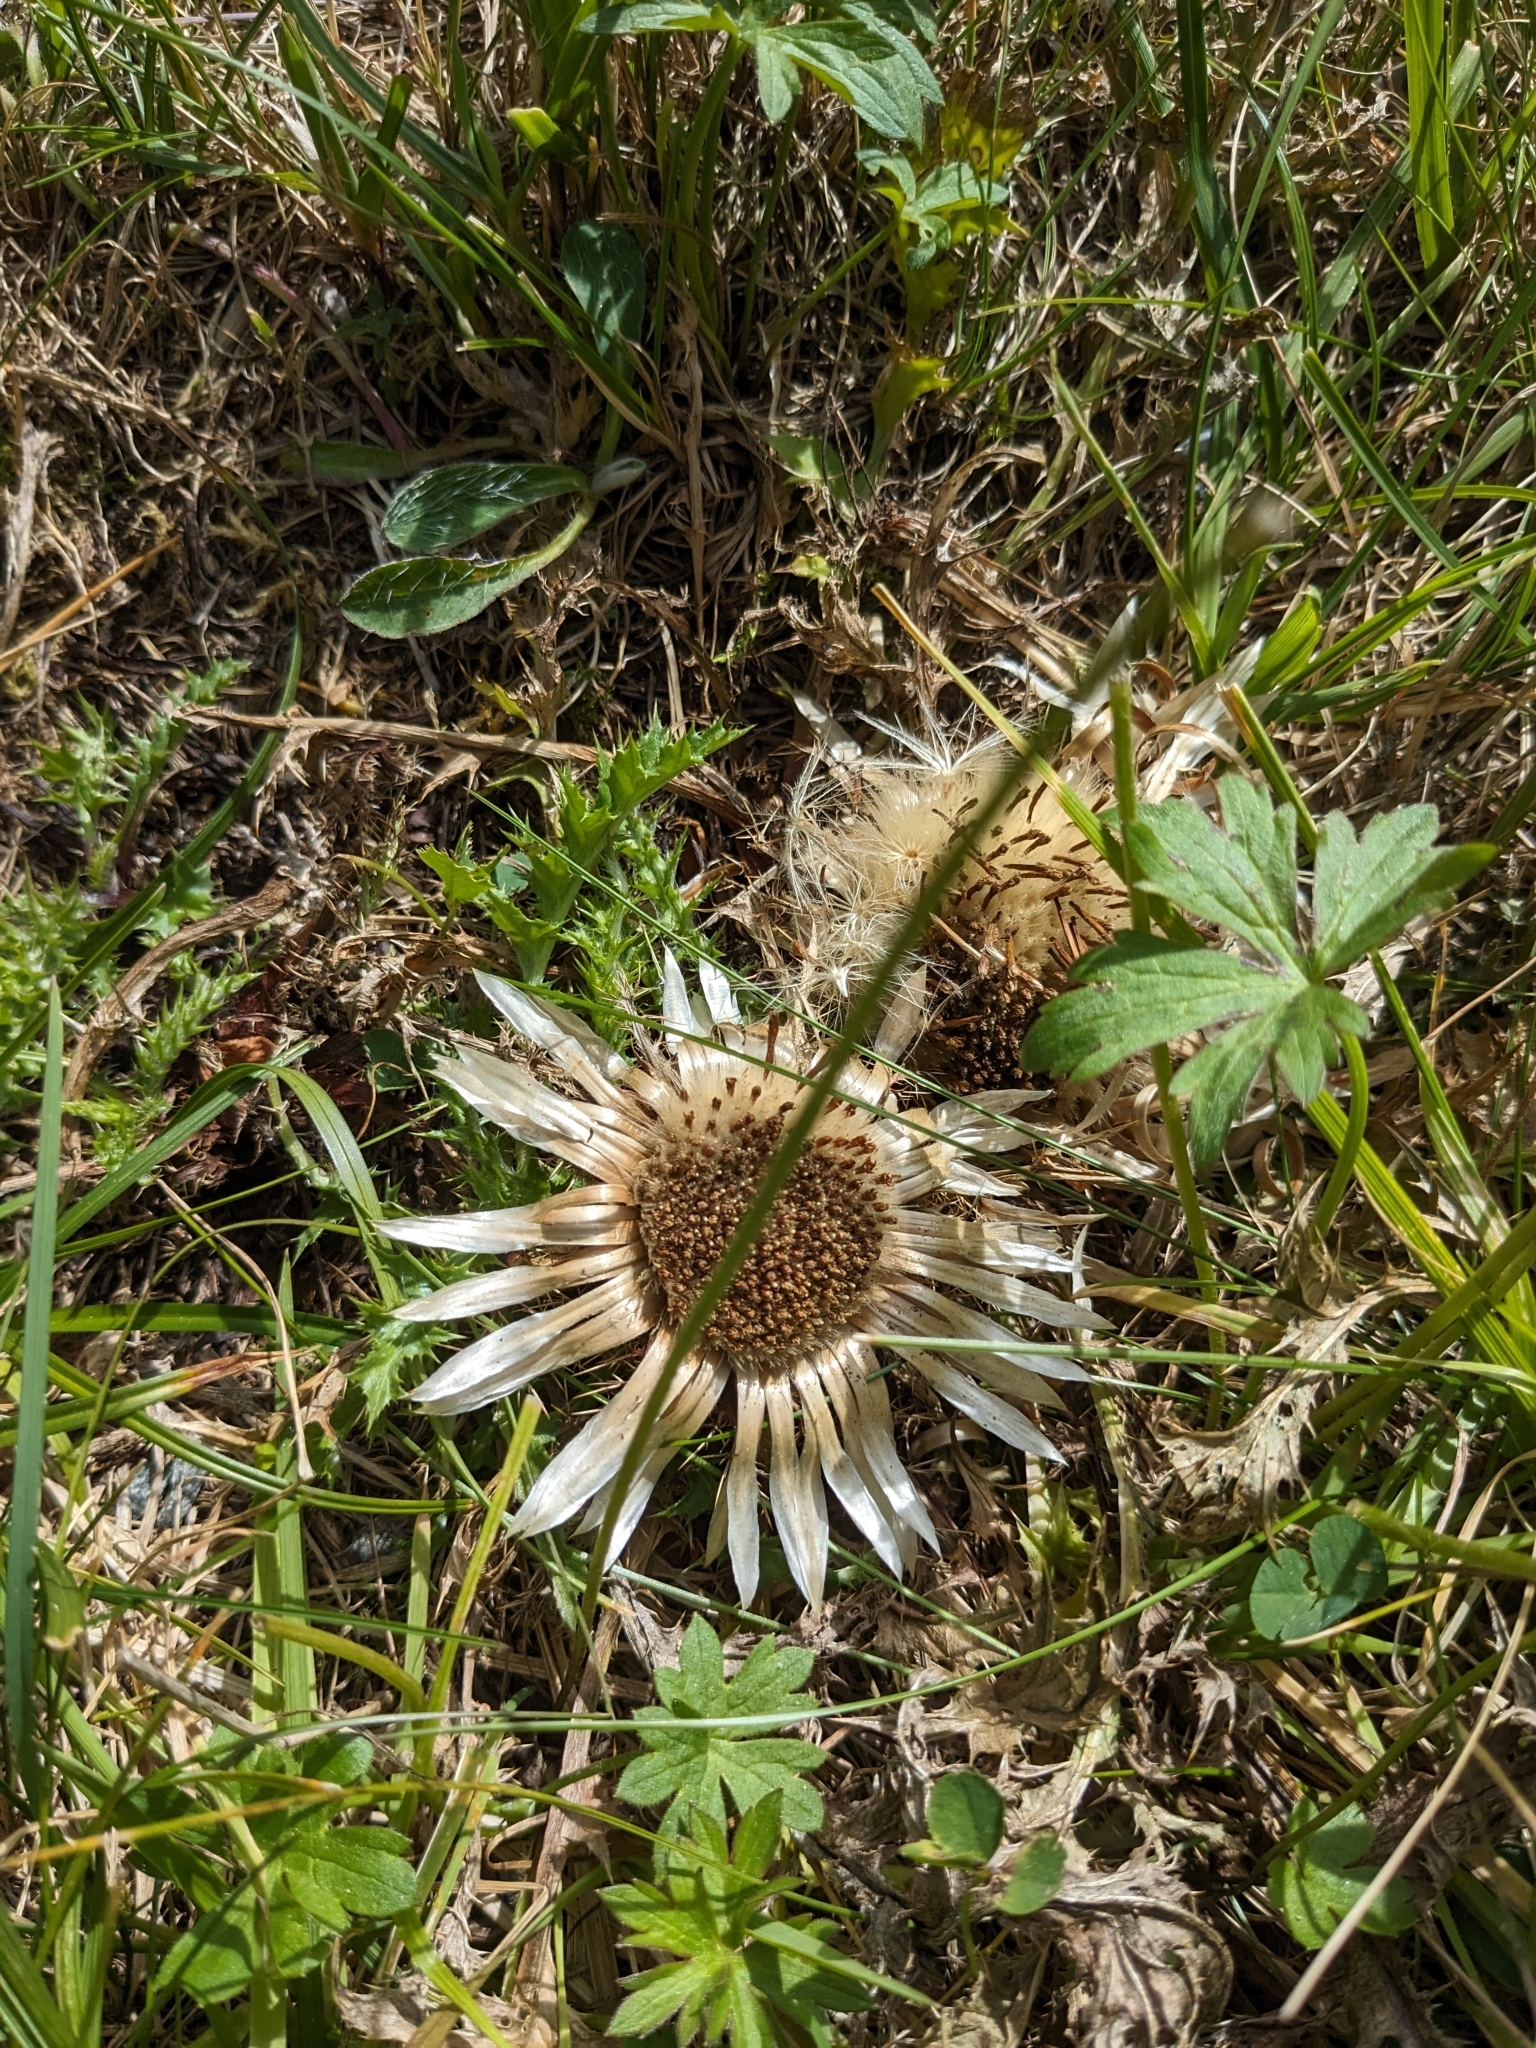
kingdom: Plantae
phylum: Tracheophyta
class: Magnoliopsida
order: Asterales
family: Asteraceae
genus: Carlina
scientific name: Carlina acaulis
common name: Stemless carline thistle
